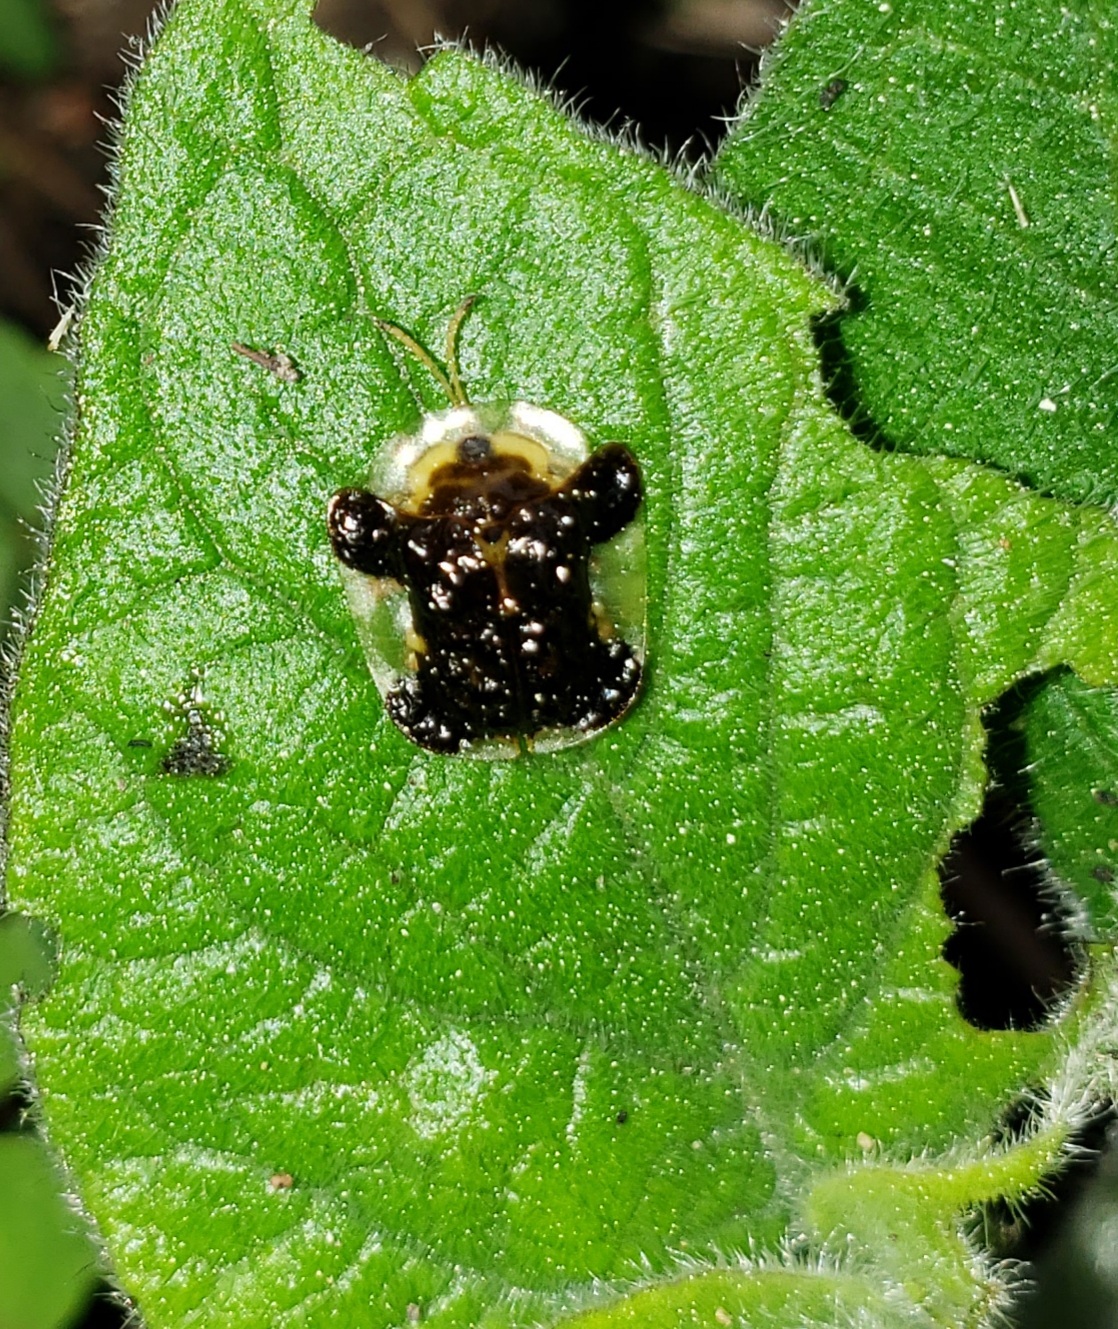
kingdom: Animalia
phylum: Arthropoda
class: Insecta
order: Coleoptera
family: Chrysomelidae
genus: Helocassis
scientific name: Helocassis clavata
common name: Clavate tortoise beetle
